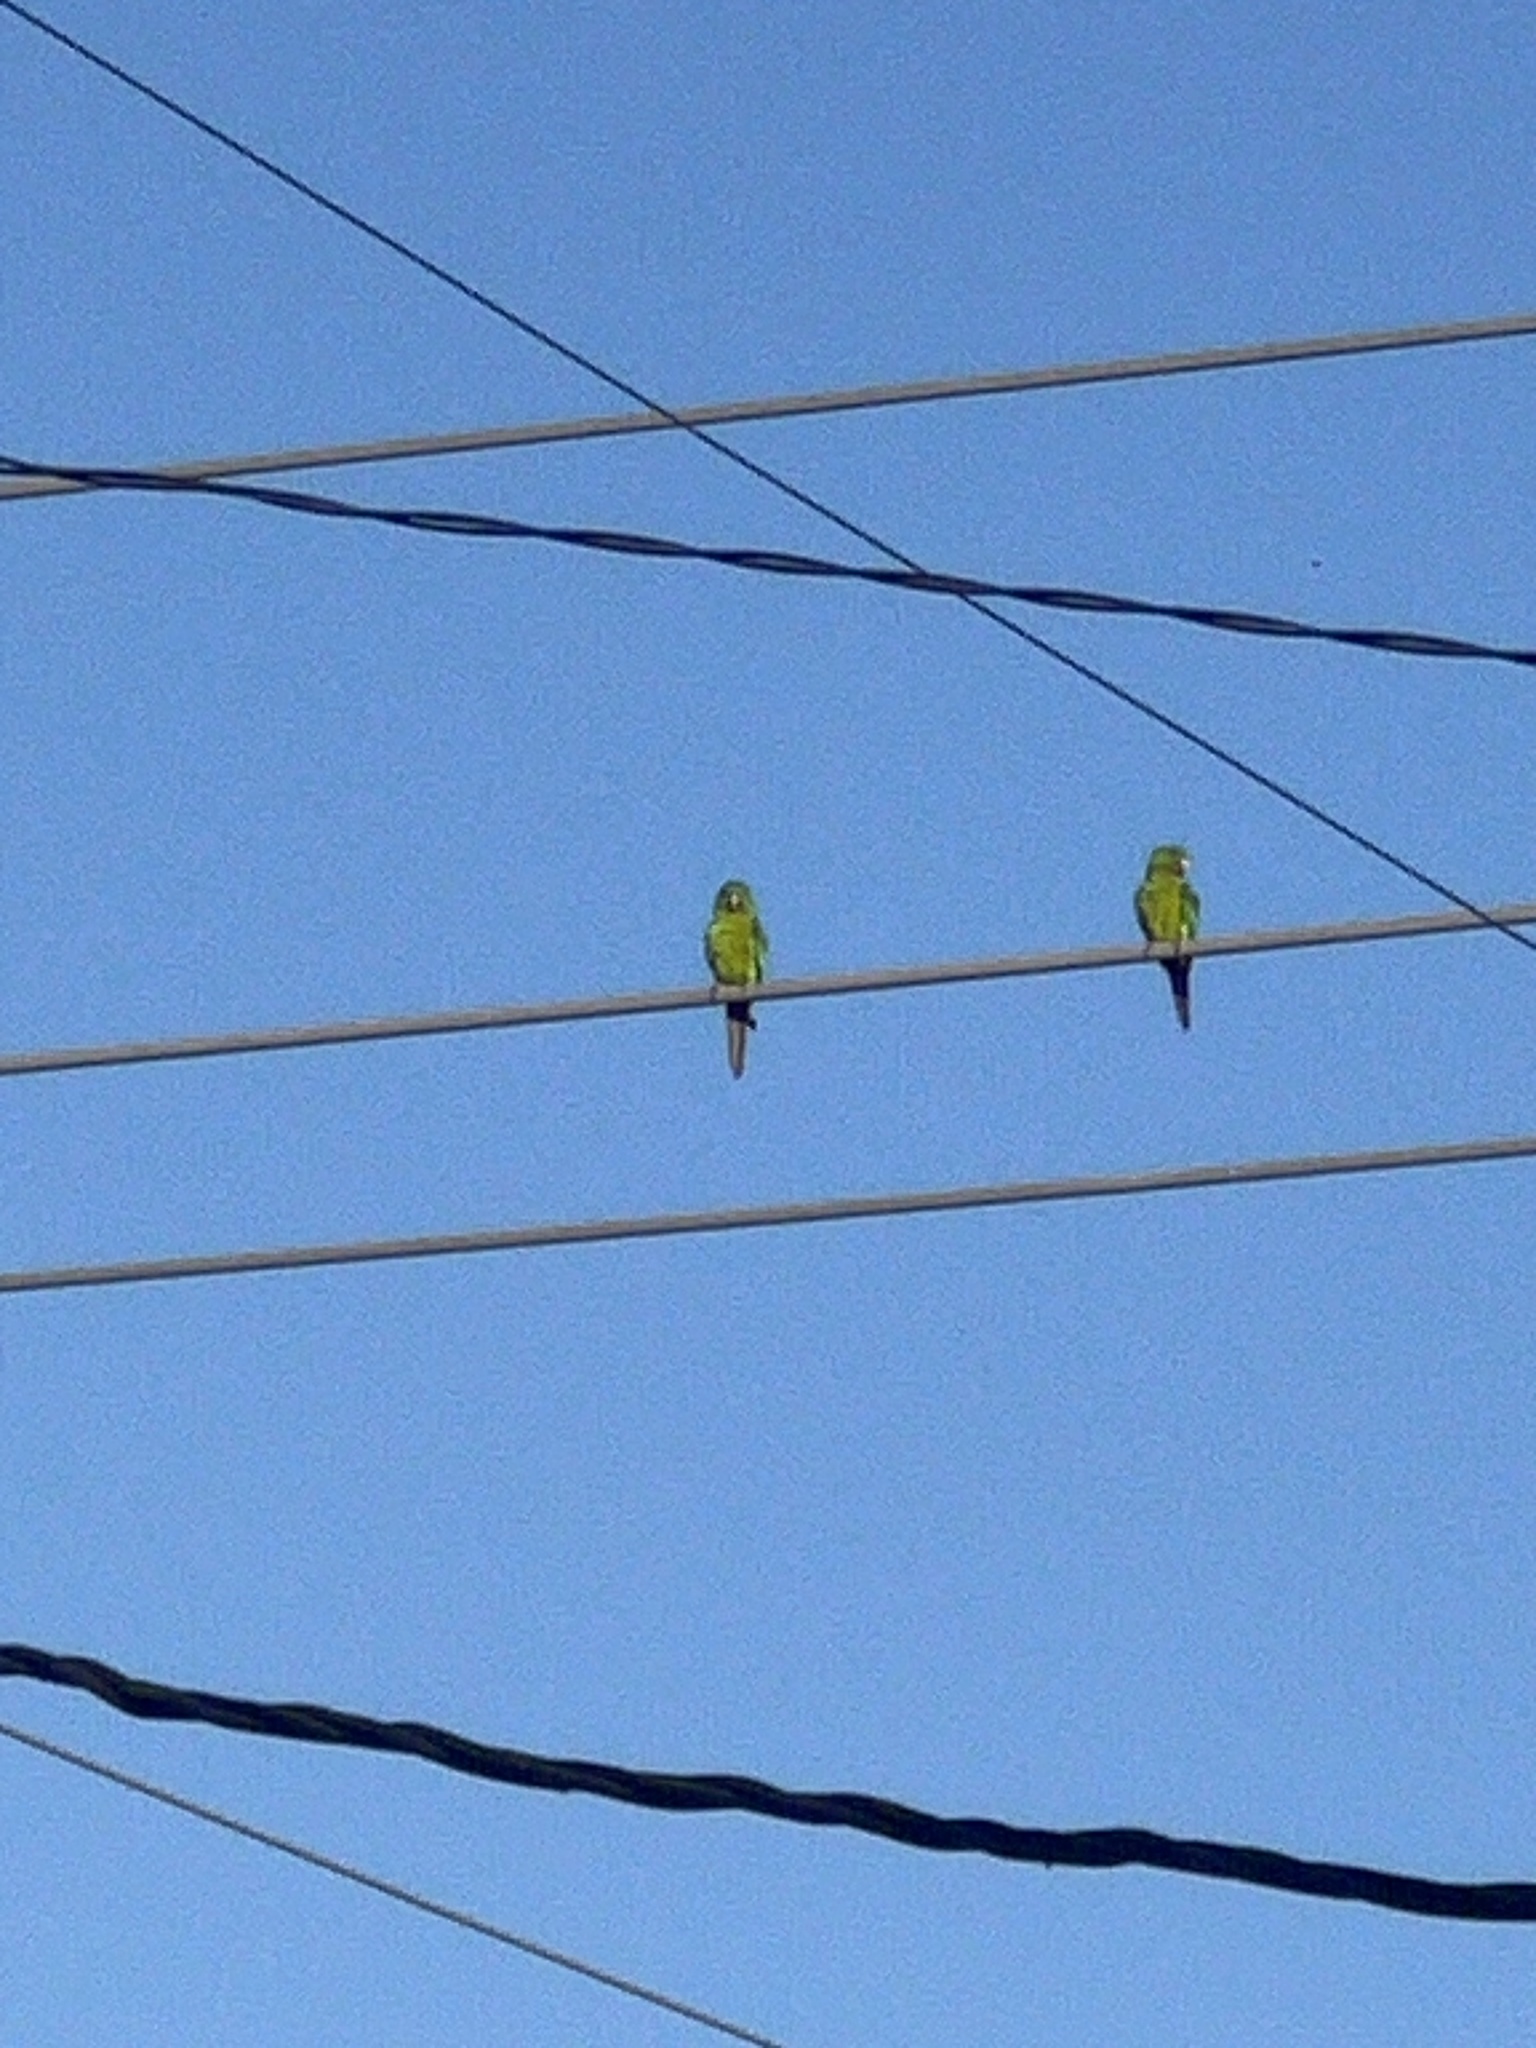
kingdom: Animalia
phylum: Chordata
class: Aves
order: Psittaciformes
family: Psittacidae
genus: Aratinga
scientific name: Aratinga holochlora
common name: Green parakeet
